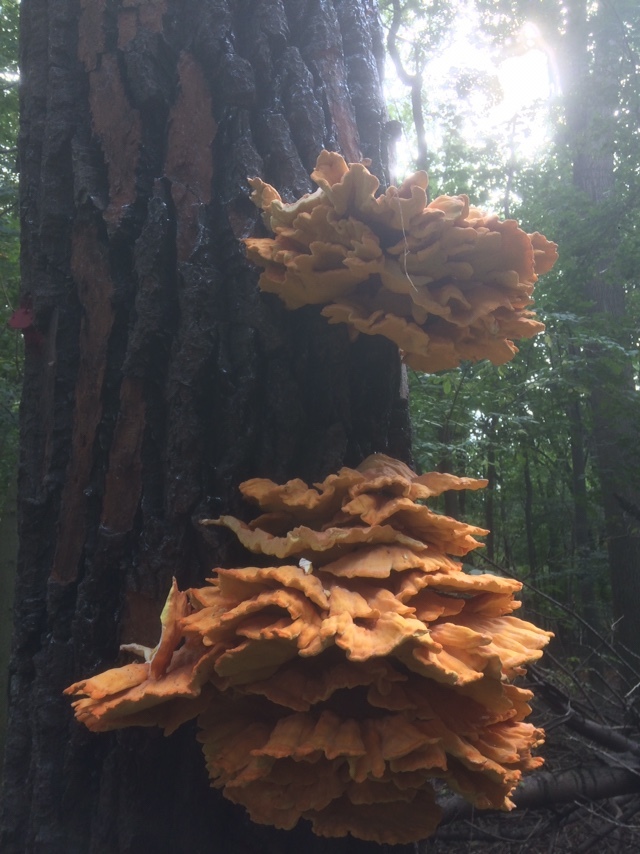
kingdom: Fungi
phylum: Basidiomycota
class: Agaricomycetes
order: Polyporales
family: Laetiporaceae
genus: Laetiporus
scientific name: Laetiporus sulphureus
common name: Chicken of the woods
